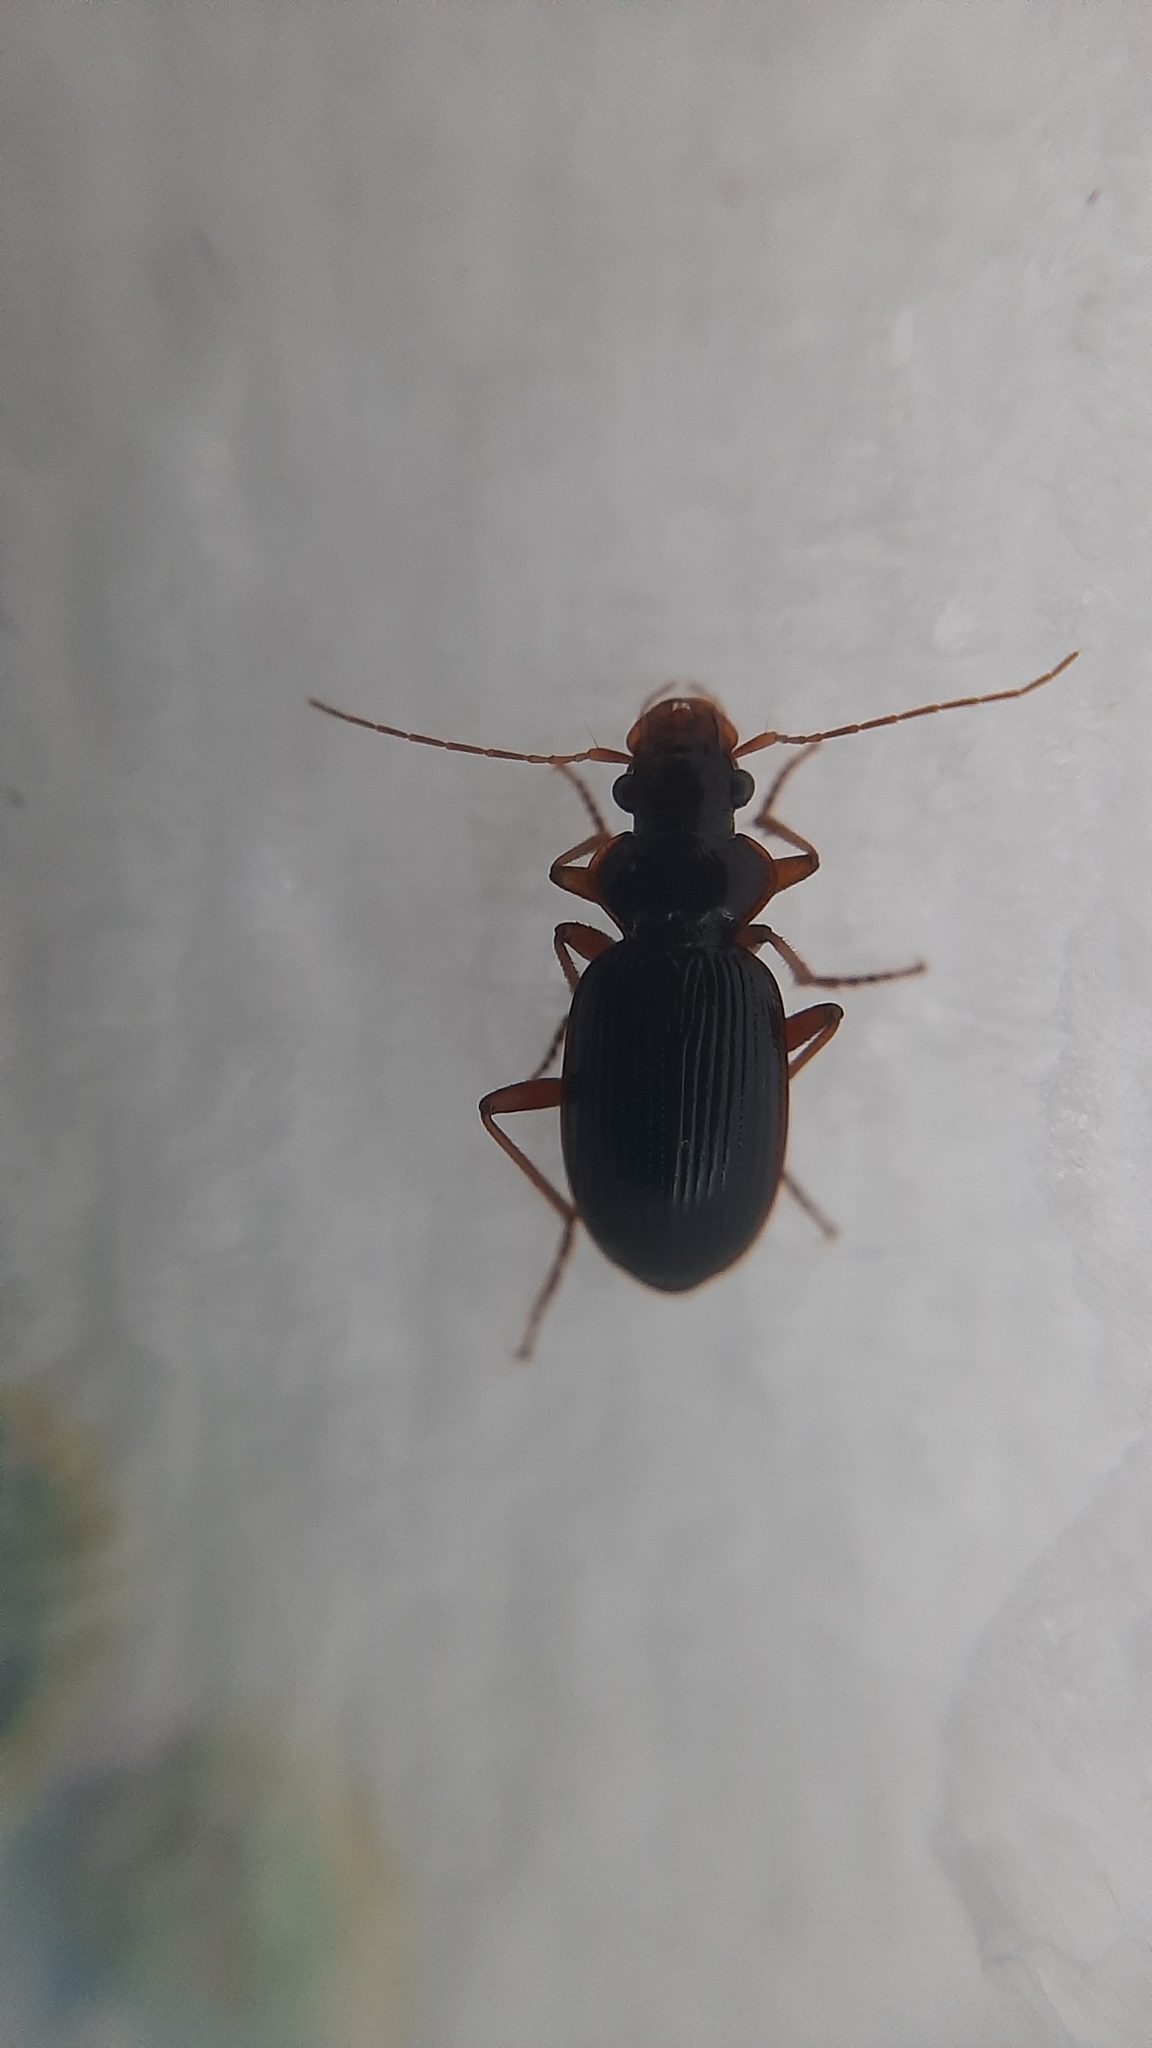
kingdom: Animalia
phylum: Arthropoda
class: Insecta
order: Coleoptera
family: Carabidae
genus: Leistus
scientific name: Leistus rufomarginatus
